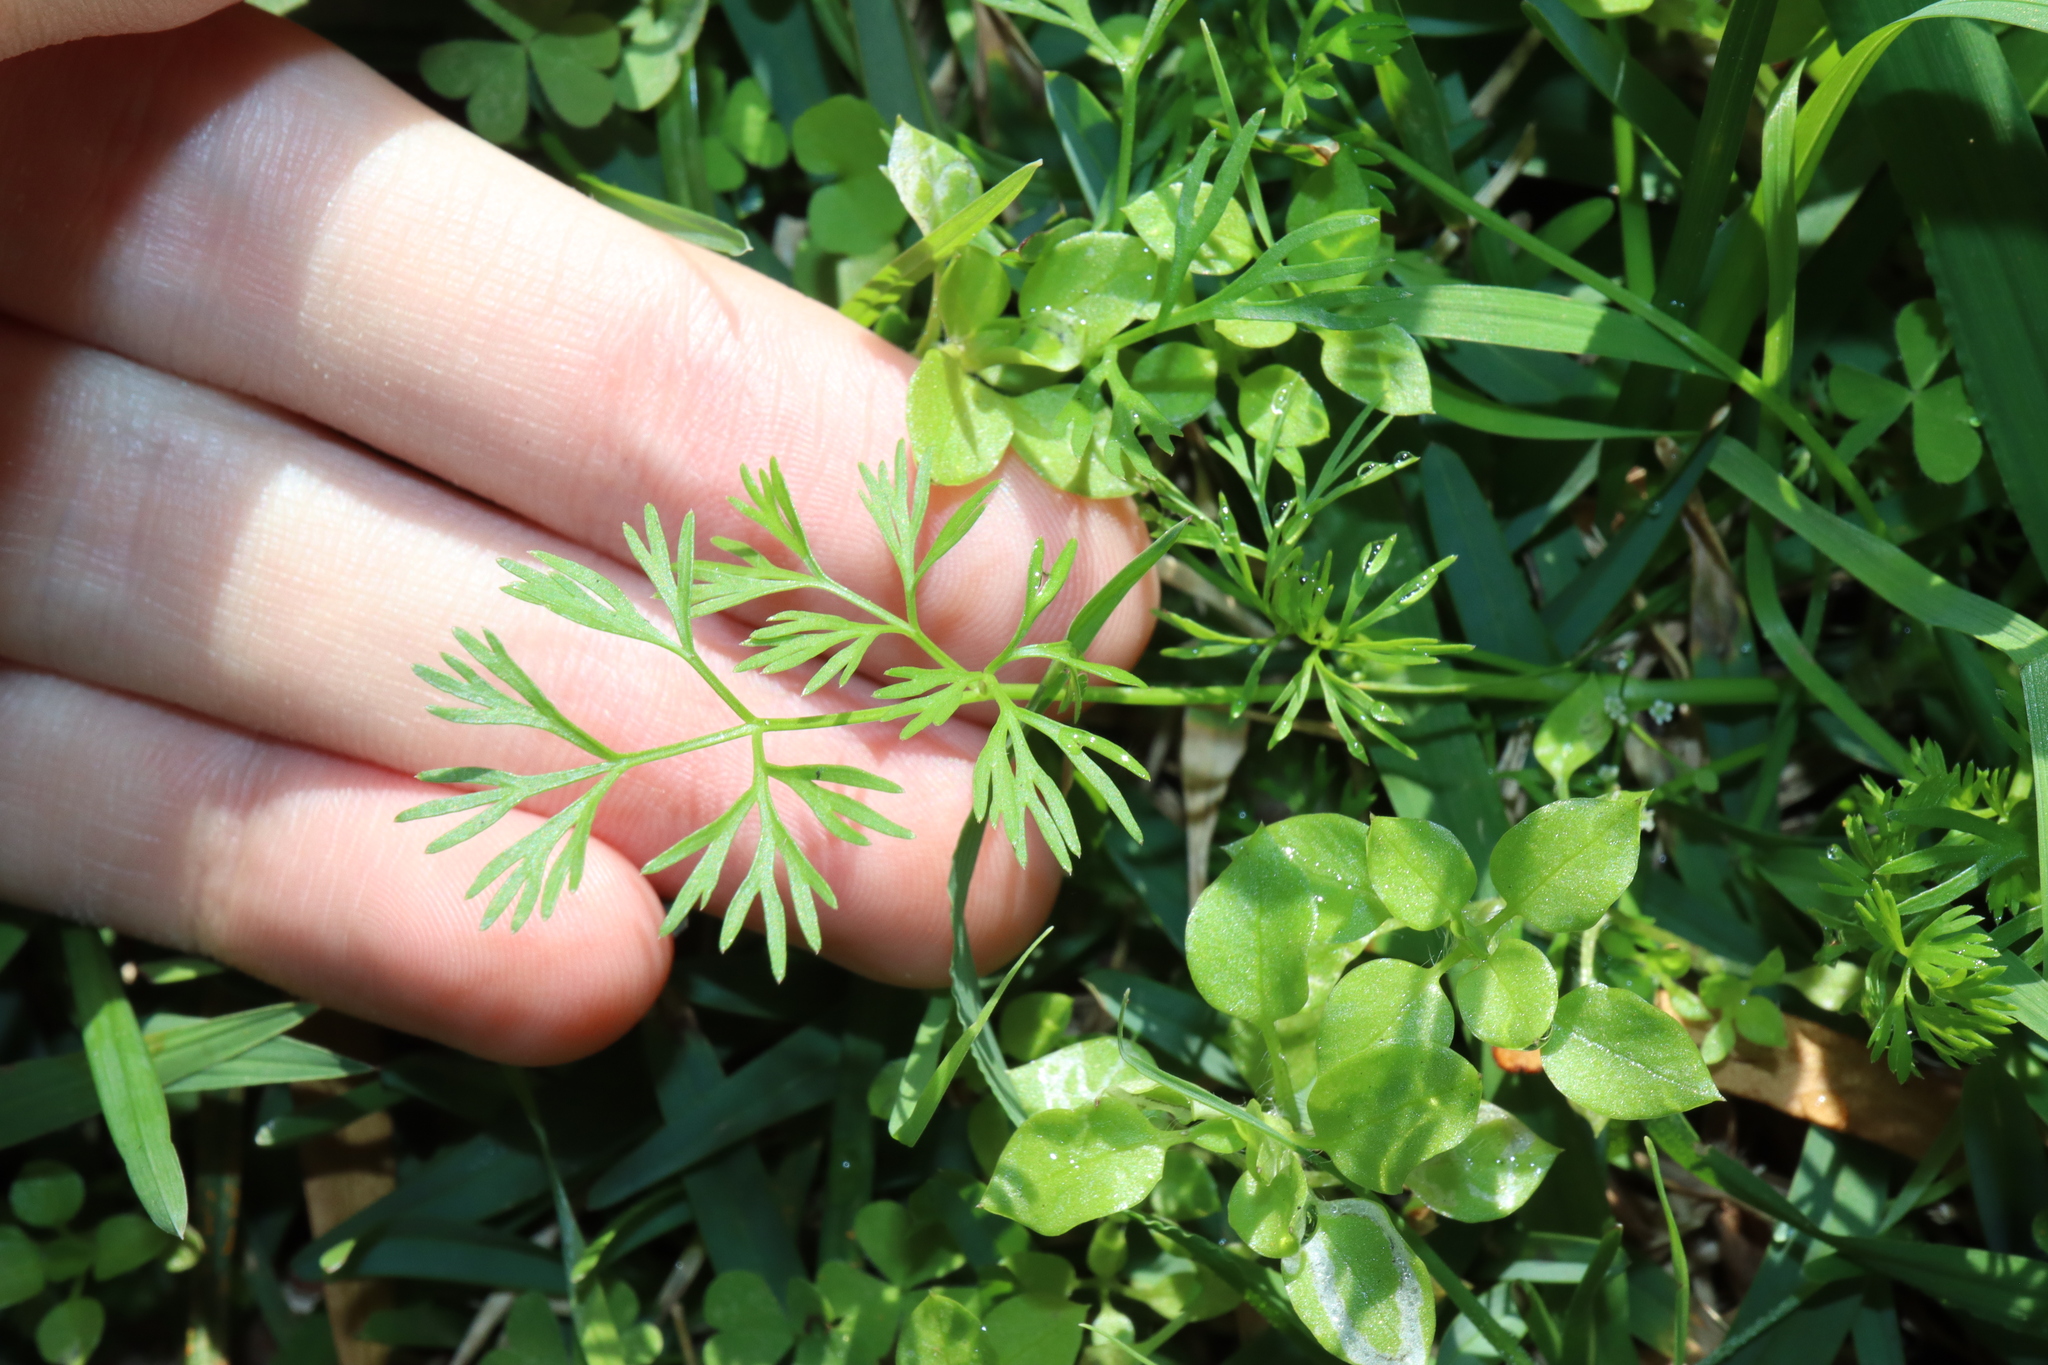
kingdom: Plantae
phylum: Tracheophyta
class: Magnoliopsida
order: Apiales
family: Apiaceae
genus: Cyclospermum
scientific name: Cyclospermum leptophyllum
